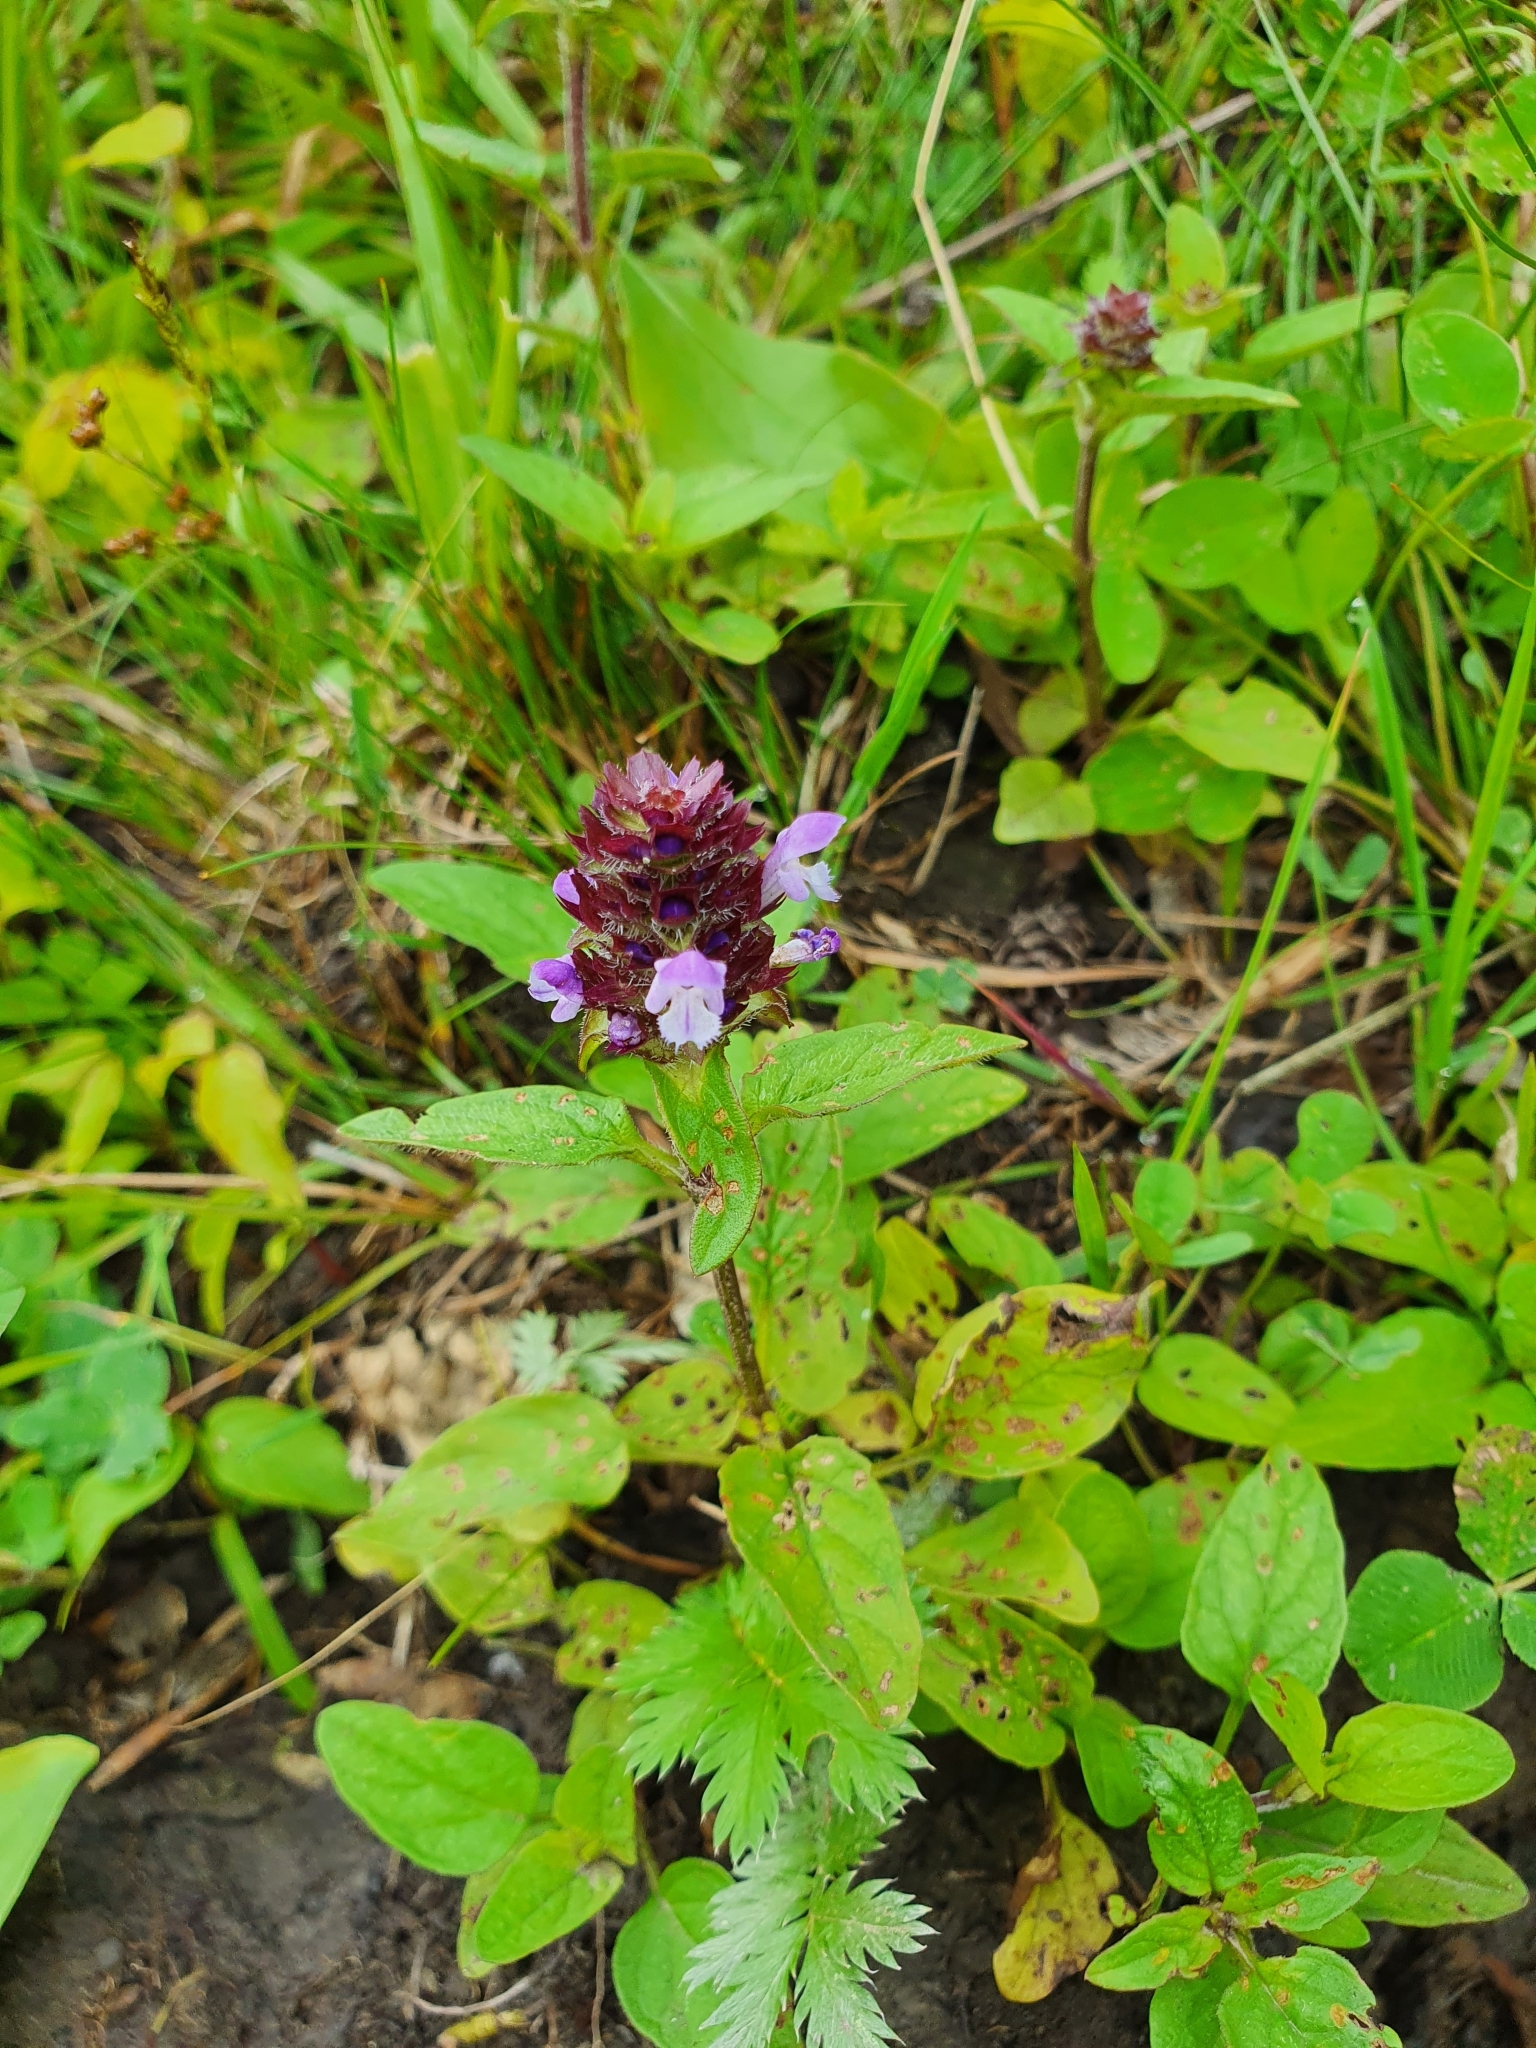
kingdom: Plantae
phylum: Tracheophyta
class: Magnoliopsida
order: Lamiales
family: Lamiaceae
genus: Prunella
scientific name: Prunella vulgaris
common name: Heal-all
